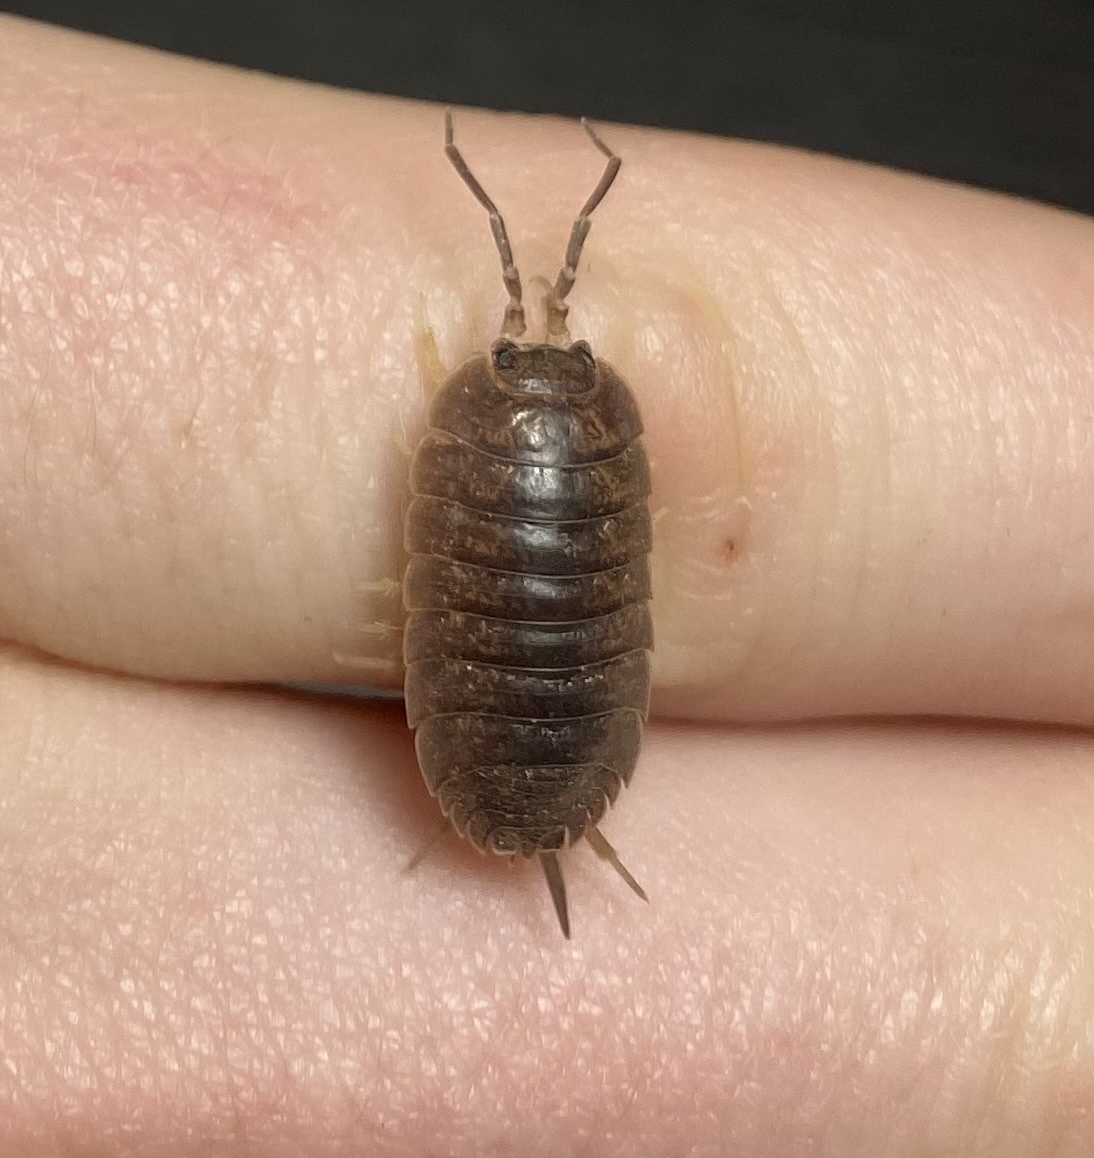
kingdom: Animalia
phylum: Arthropoda
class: Malacostraca
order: Isopoda
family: Porcellionidae
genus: Porcellio
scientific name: Porcellio laevis
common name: Swift woodlouse
